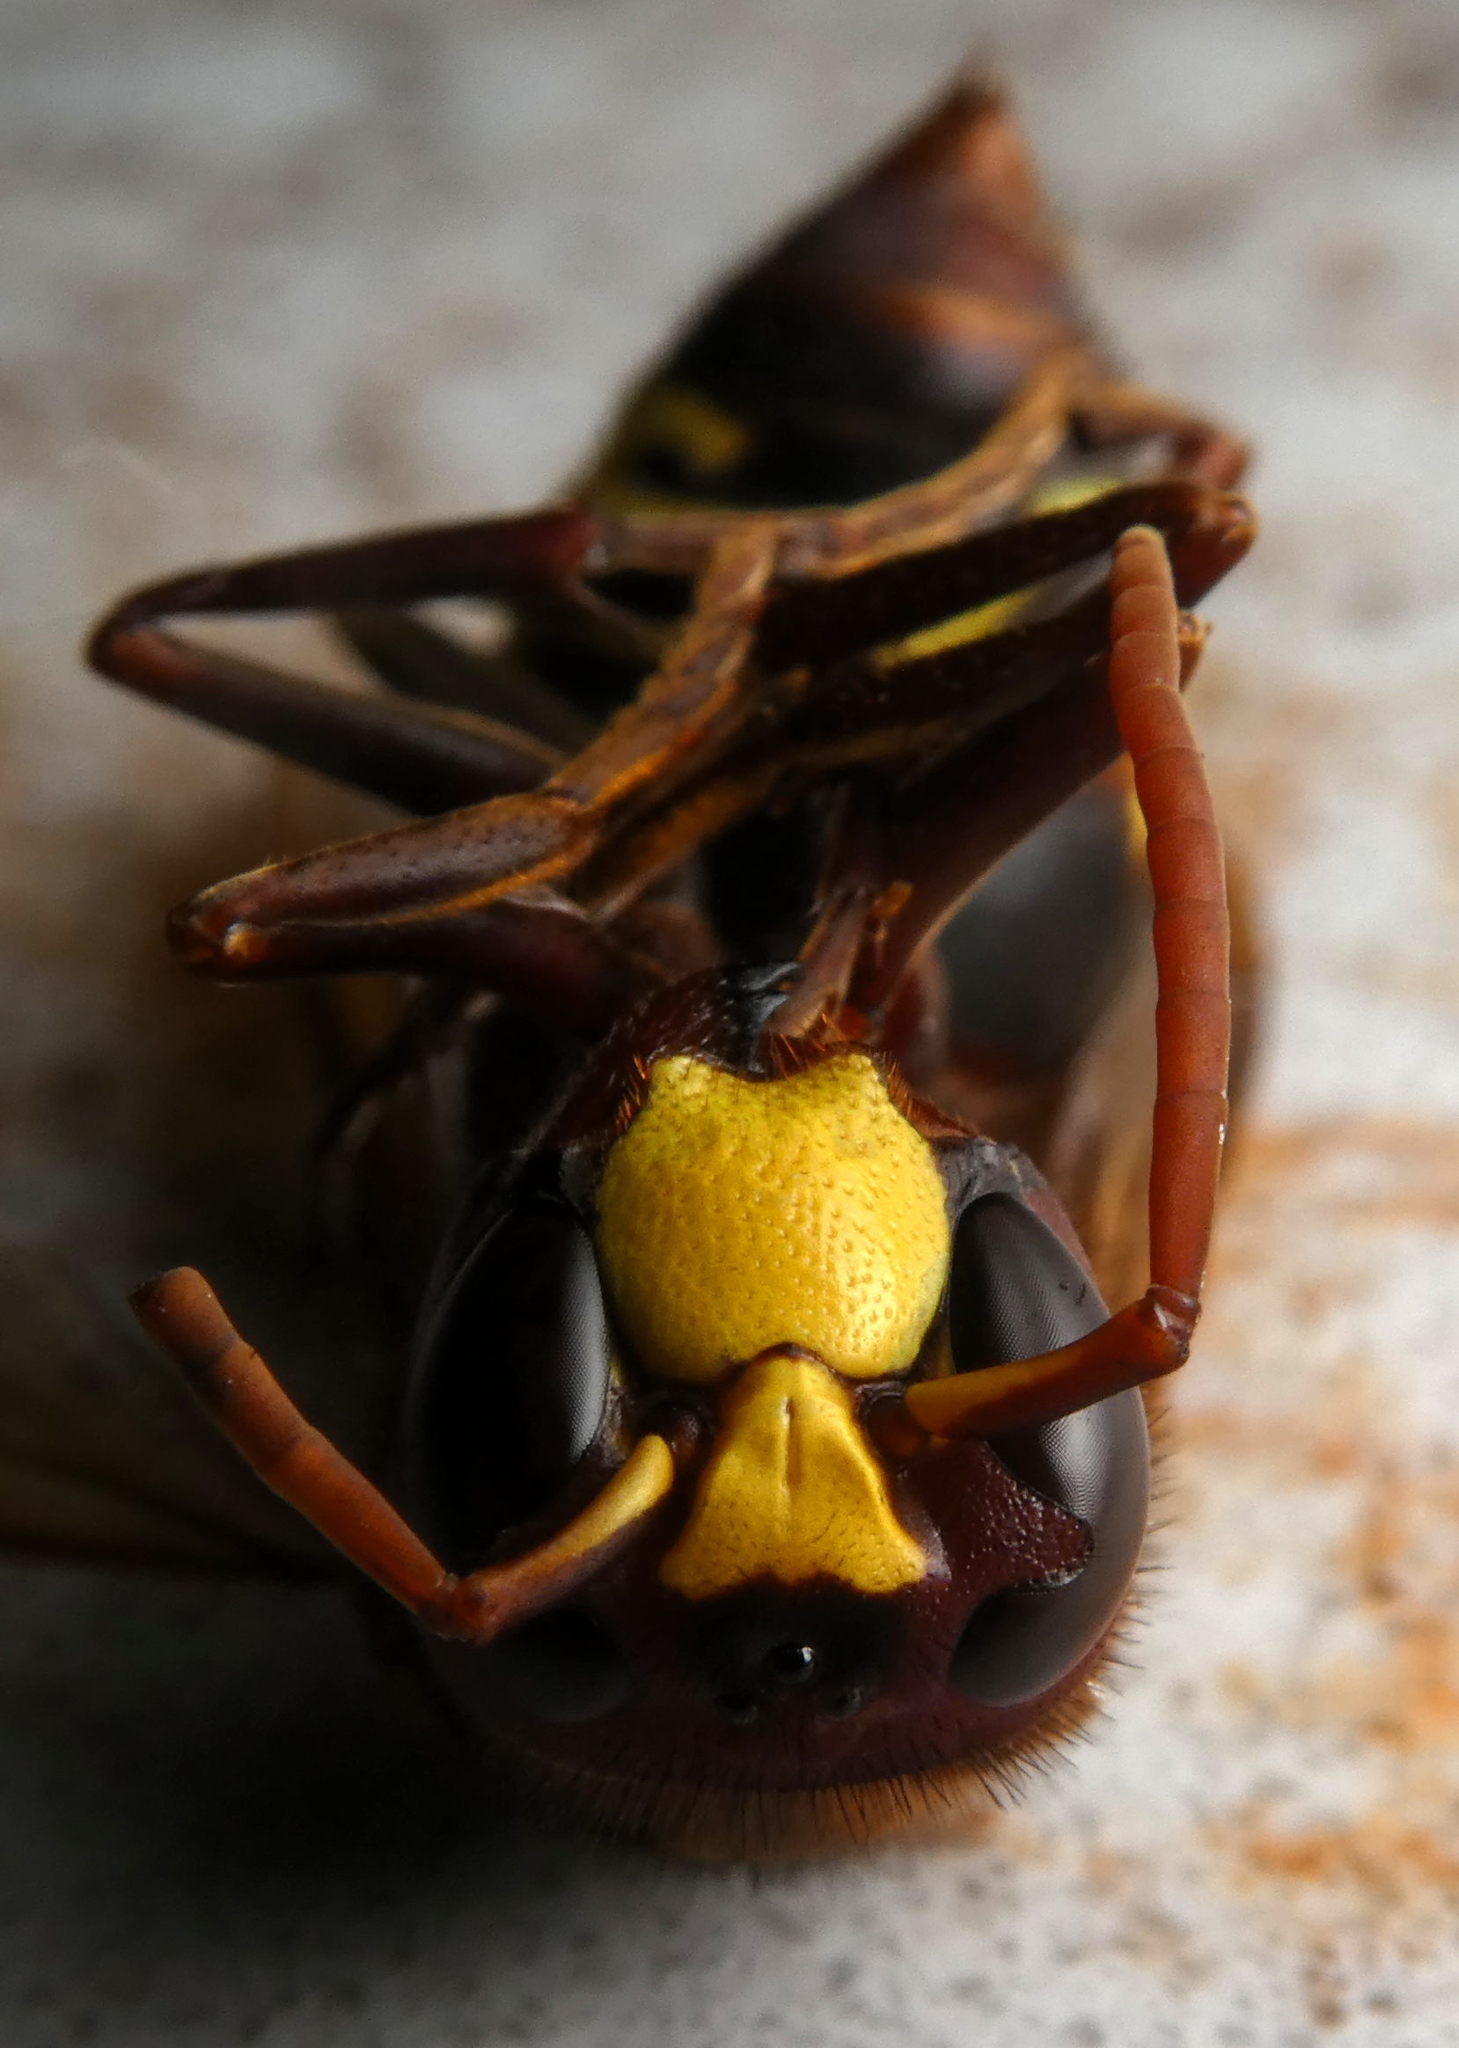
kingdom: Animalia
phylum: Arthropoda
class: Insecta
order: Hymenoptera
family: Vespidae
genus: Vespa
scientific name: Vespa orientalis
